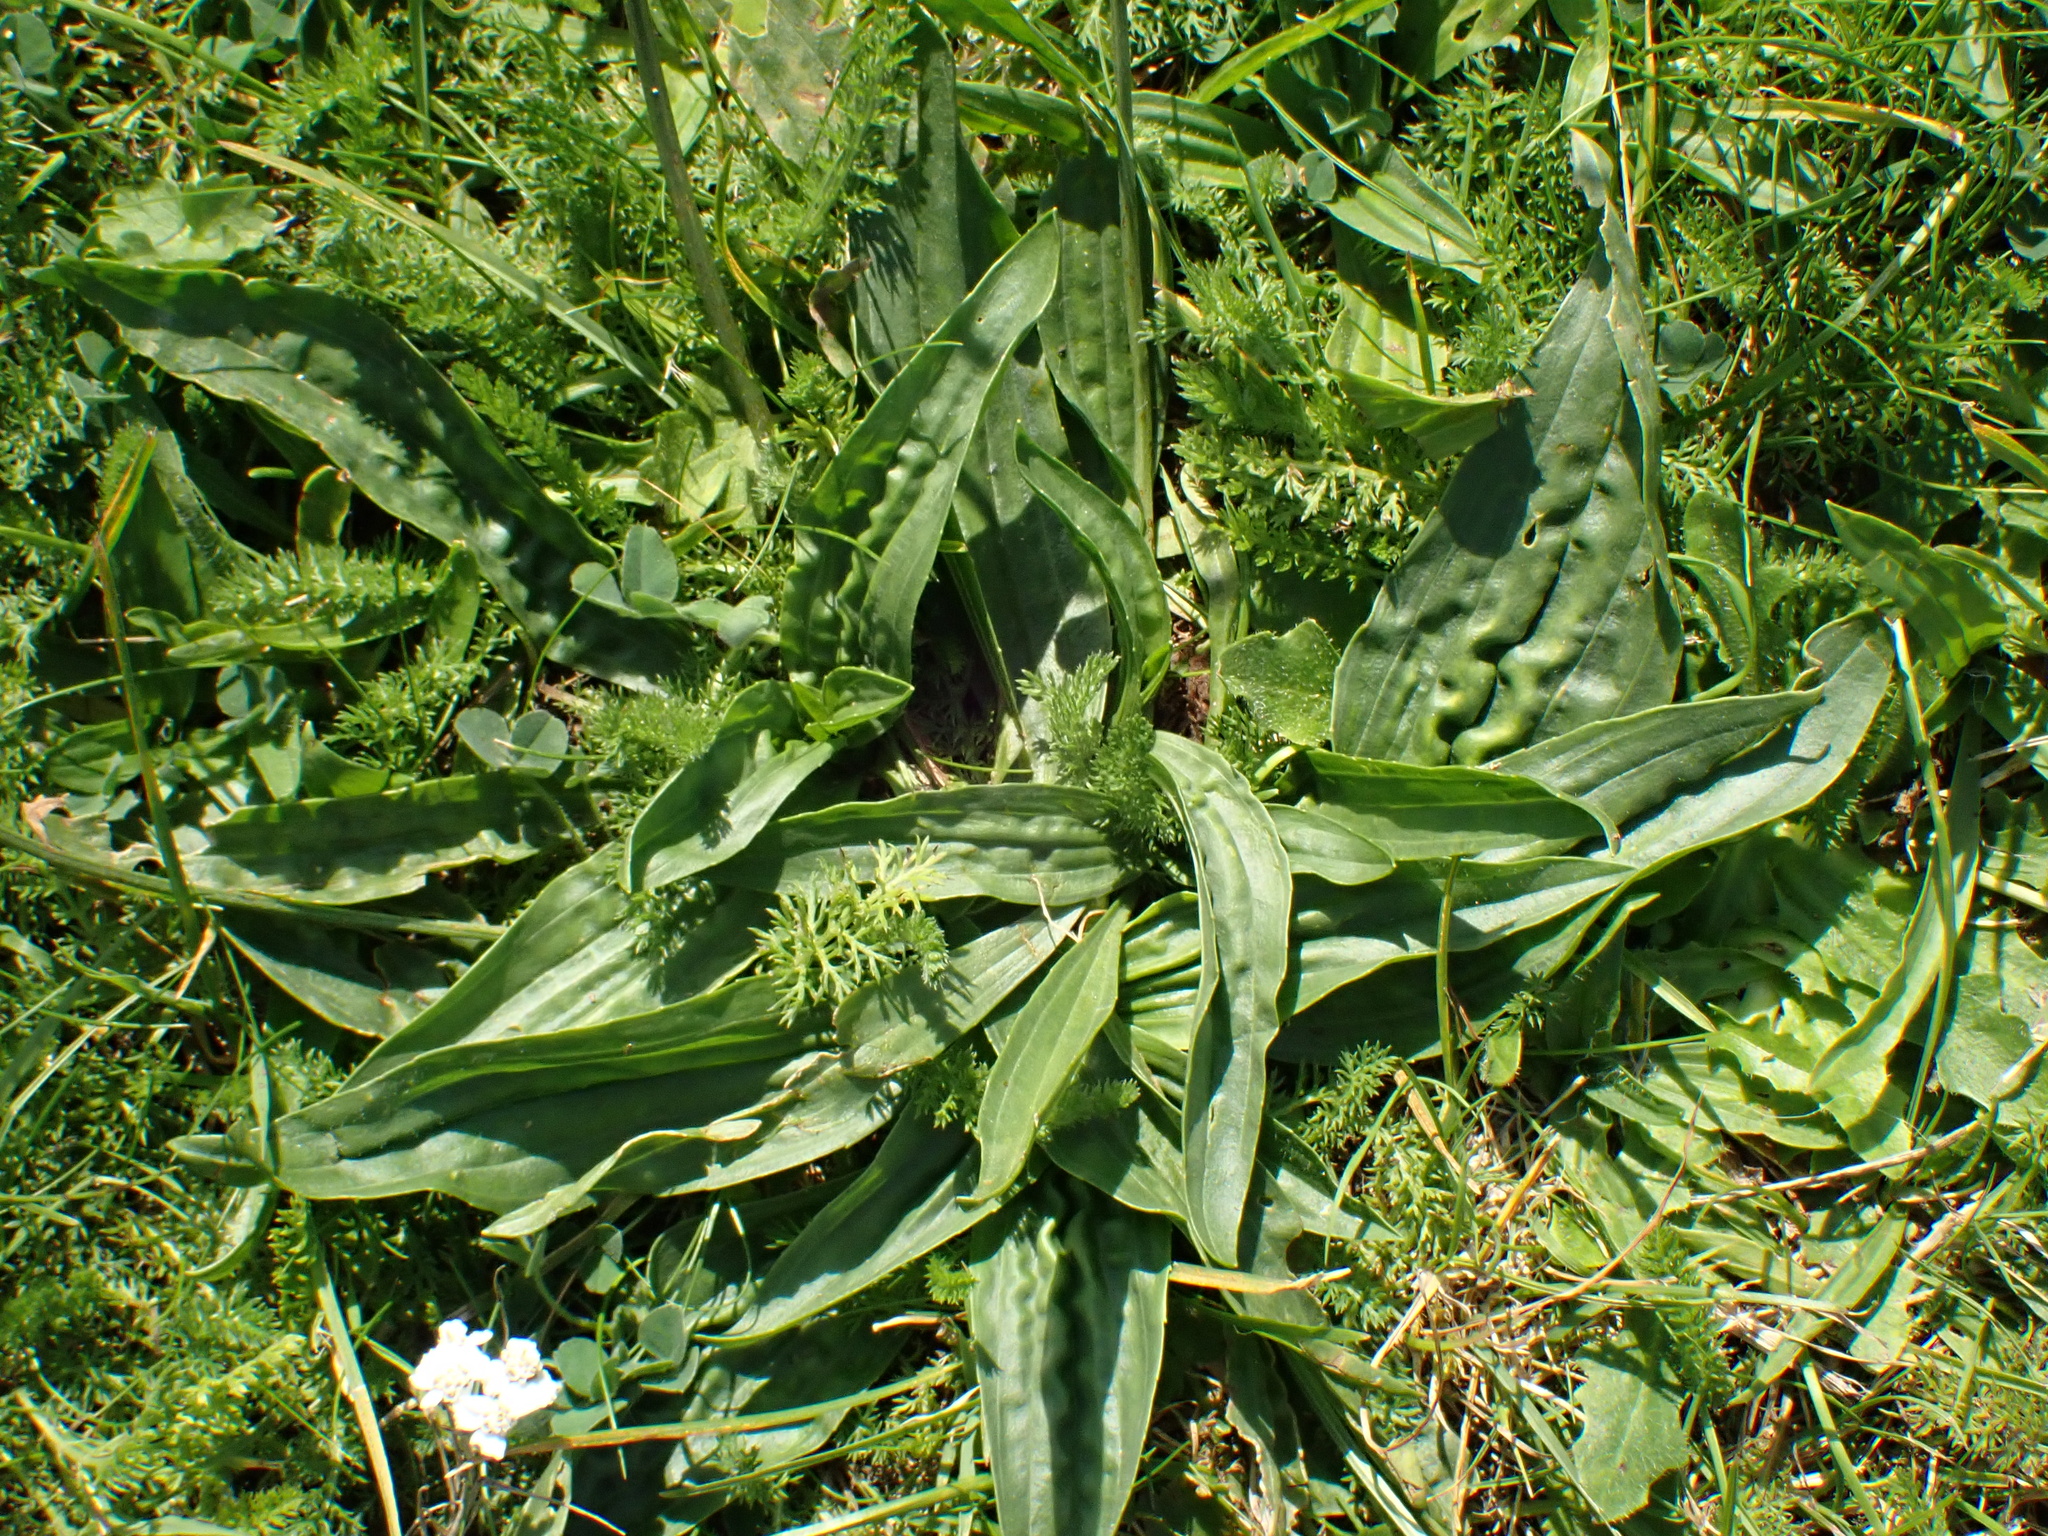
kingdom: Plantae
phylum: Tracheophyta
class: Magnoliopsida
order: Lamiales
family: Plantaginaceae
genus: Plantago
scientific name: Plantago lanceolata
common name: Ribwort plantain
